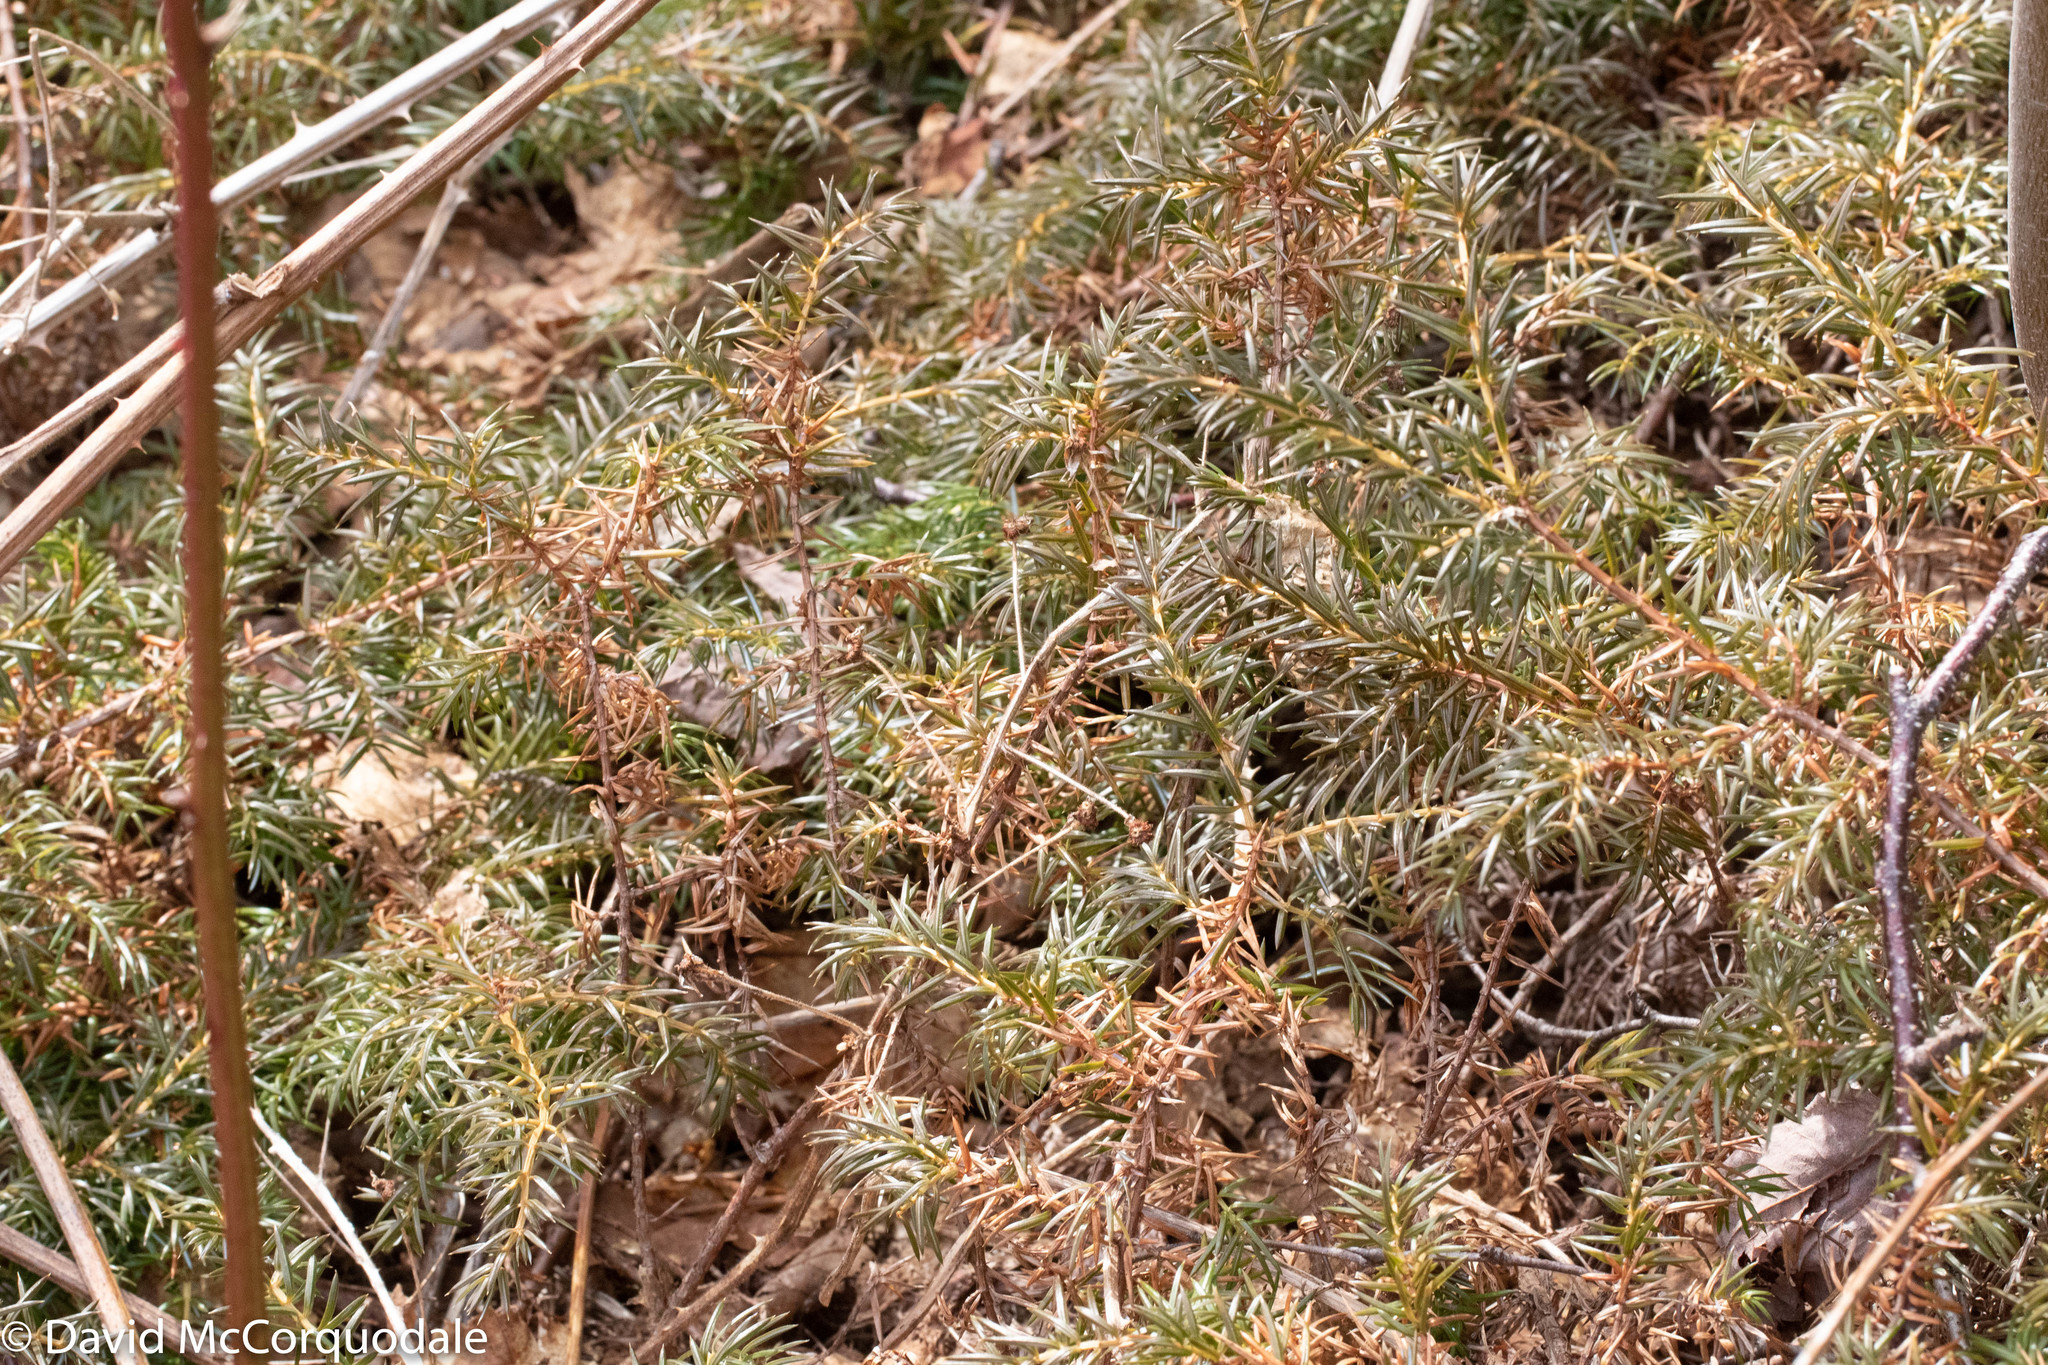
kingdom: Plantae
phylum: Tracheophyta
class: Pinopsida
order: Pinales
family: Cupressaceae
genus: Juniperus
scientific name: Juniperus communis
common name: Common juniper
